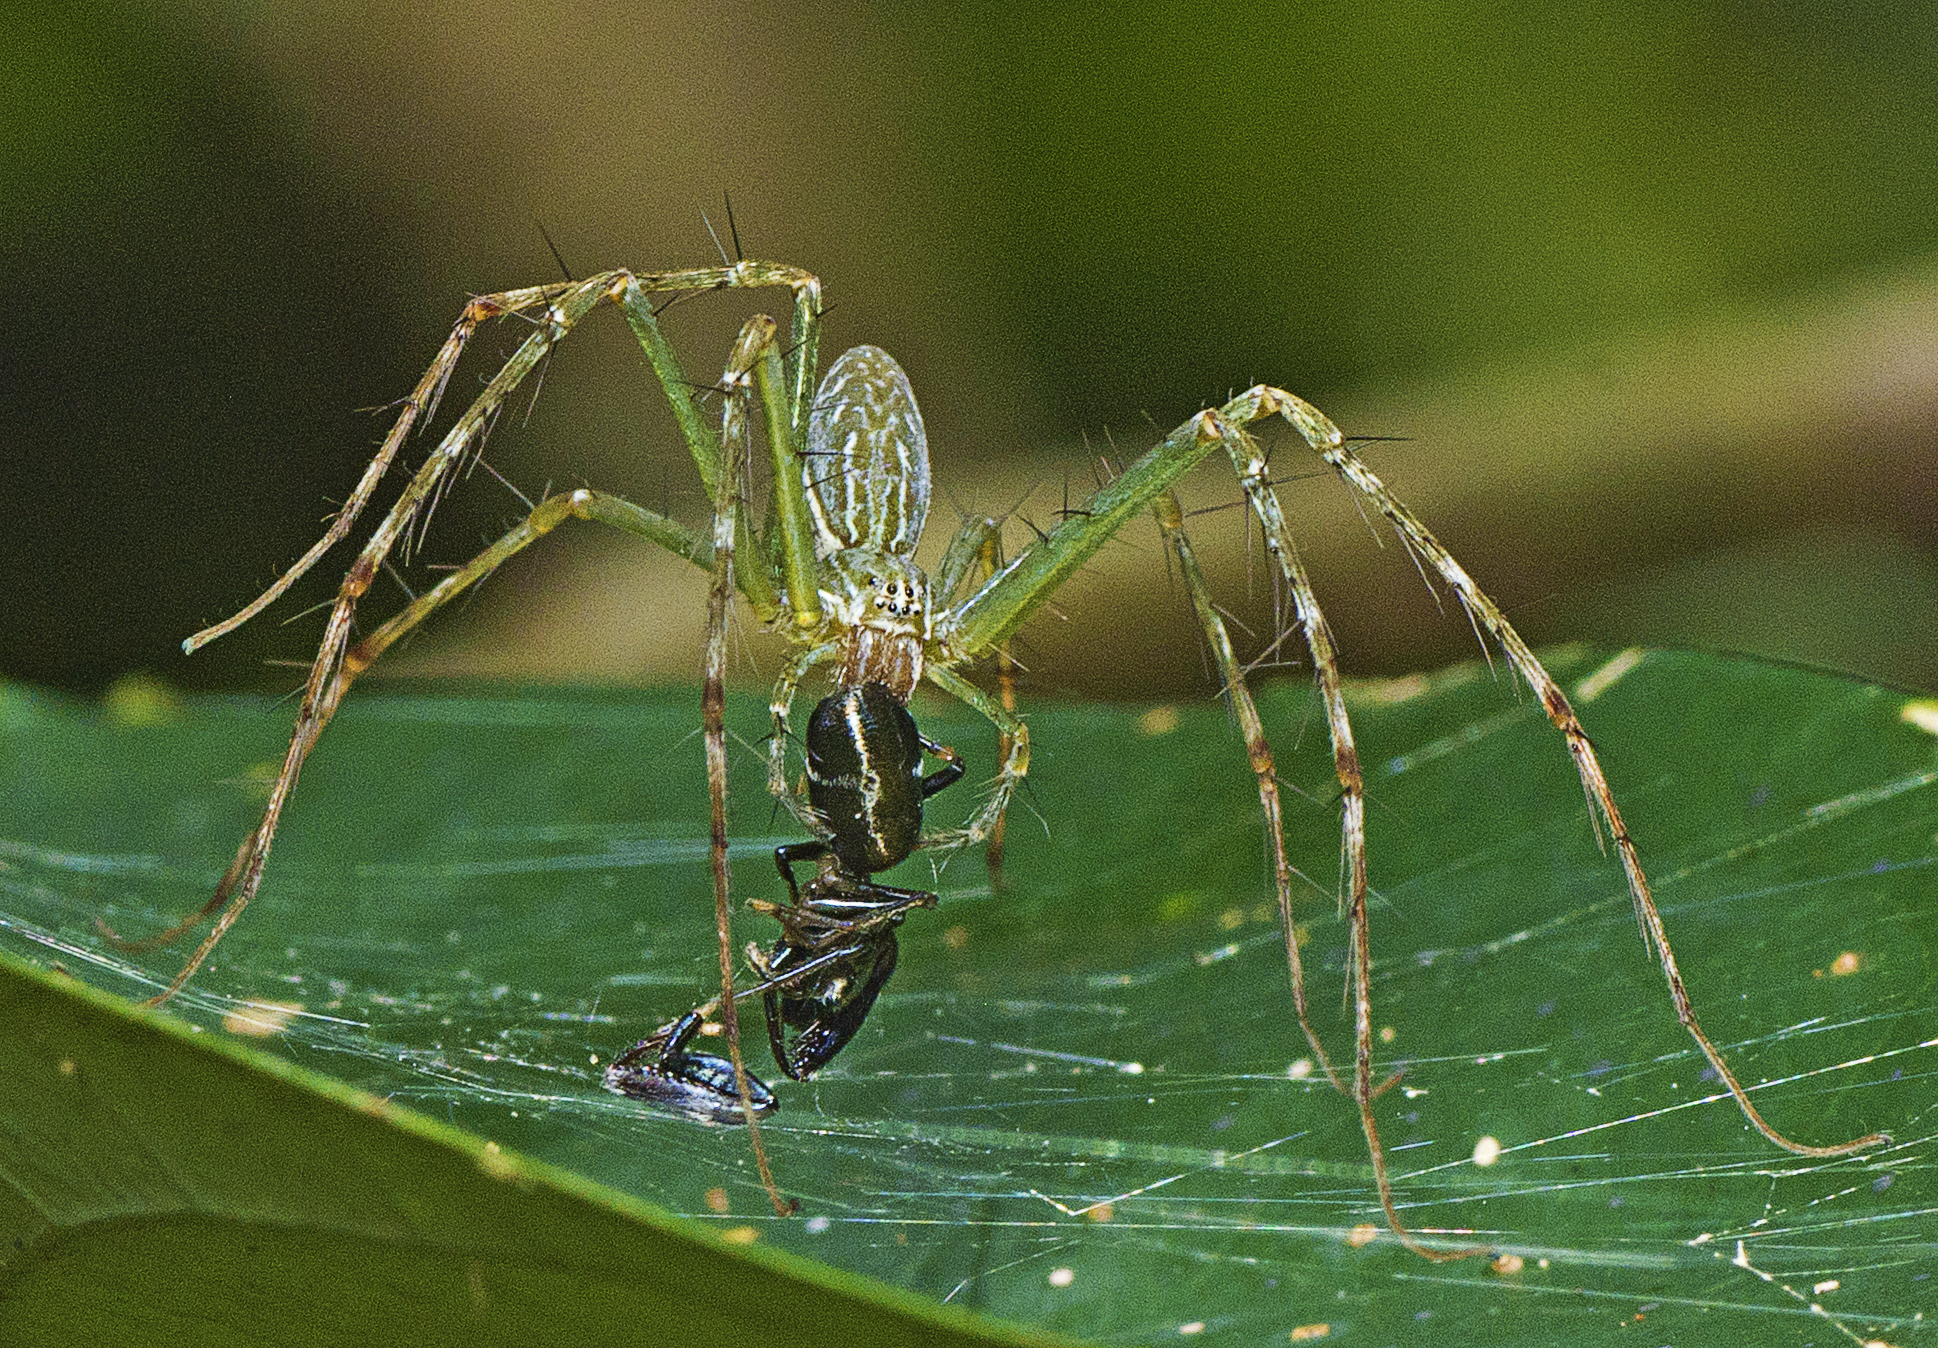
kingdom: Animalia
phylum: Arthropoda
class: Arachnida
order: Araneae
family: Pisauridae
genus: Hygropoda
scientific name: Hygropoda lineata
